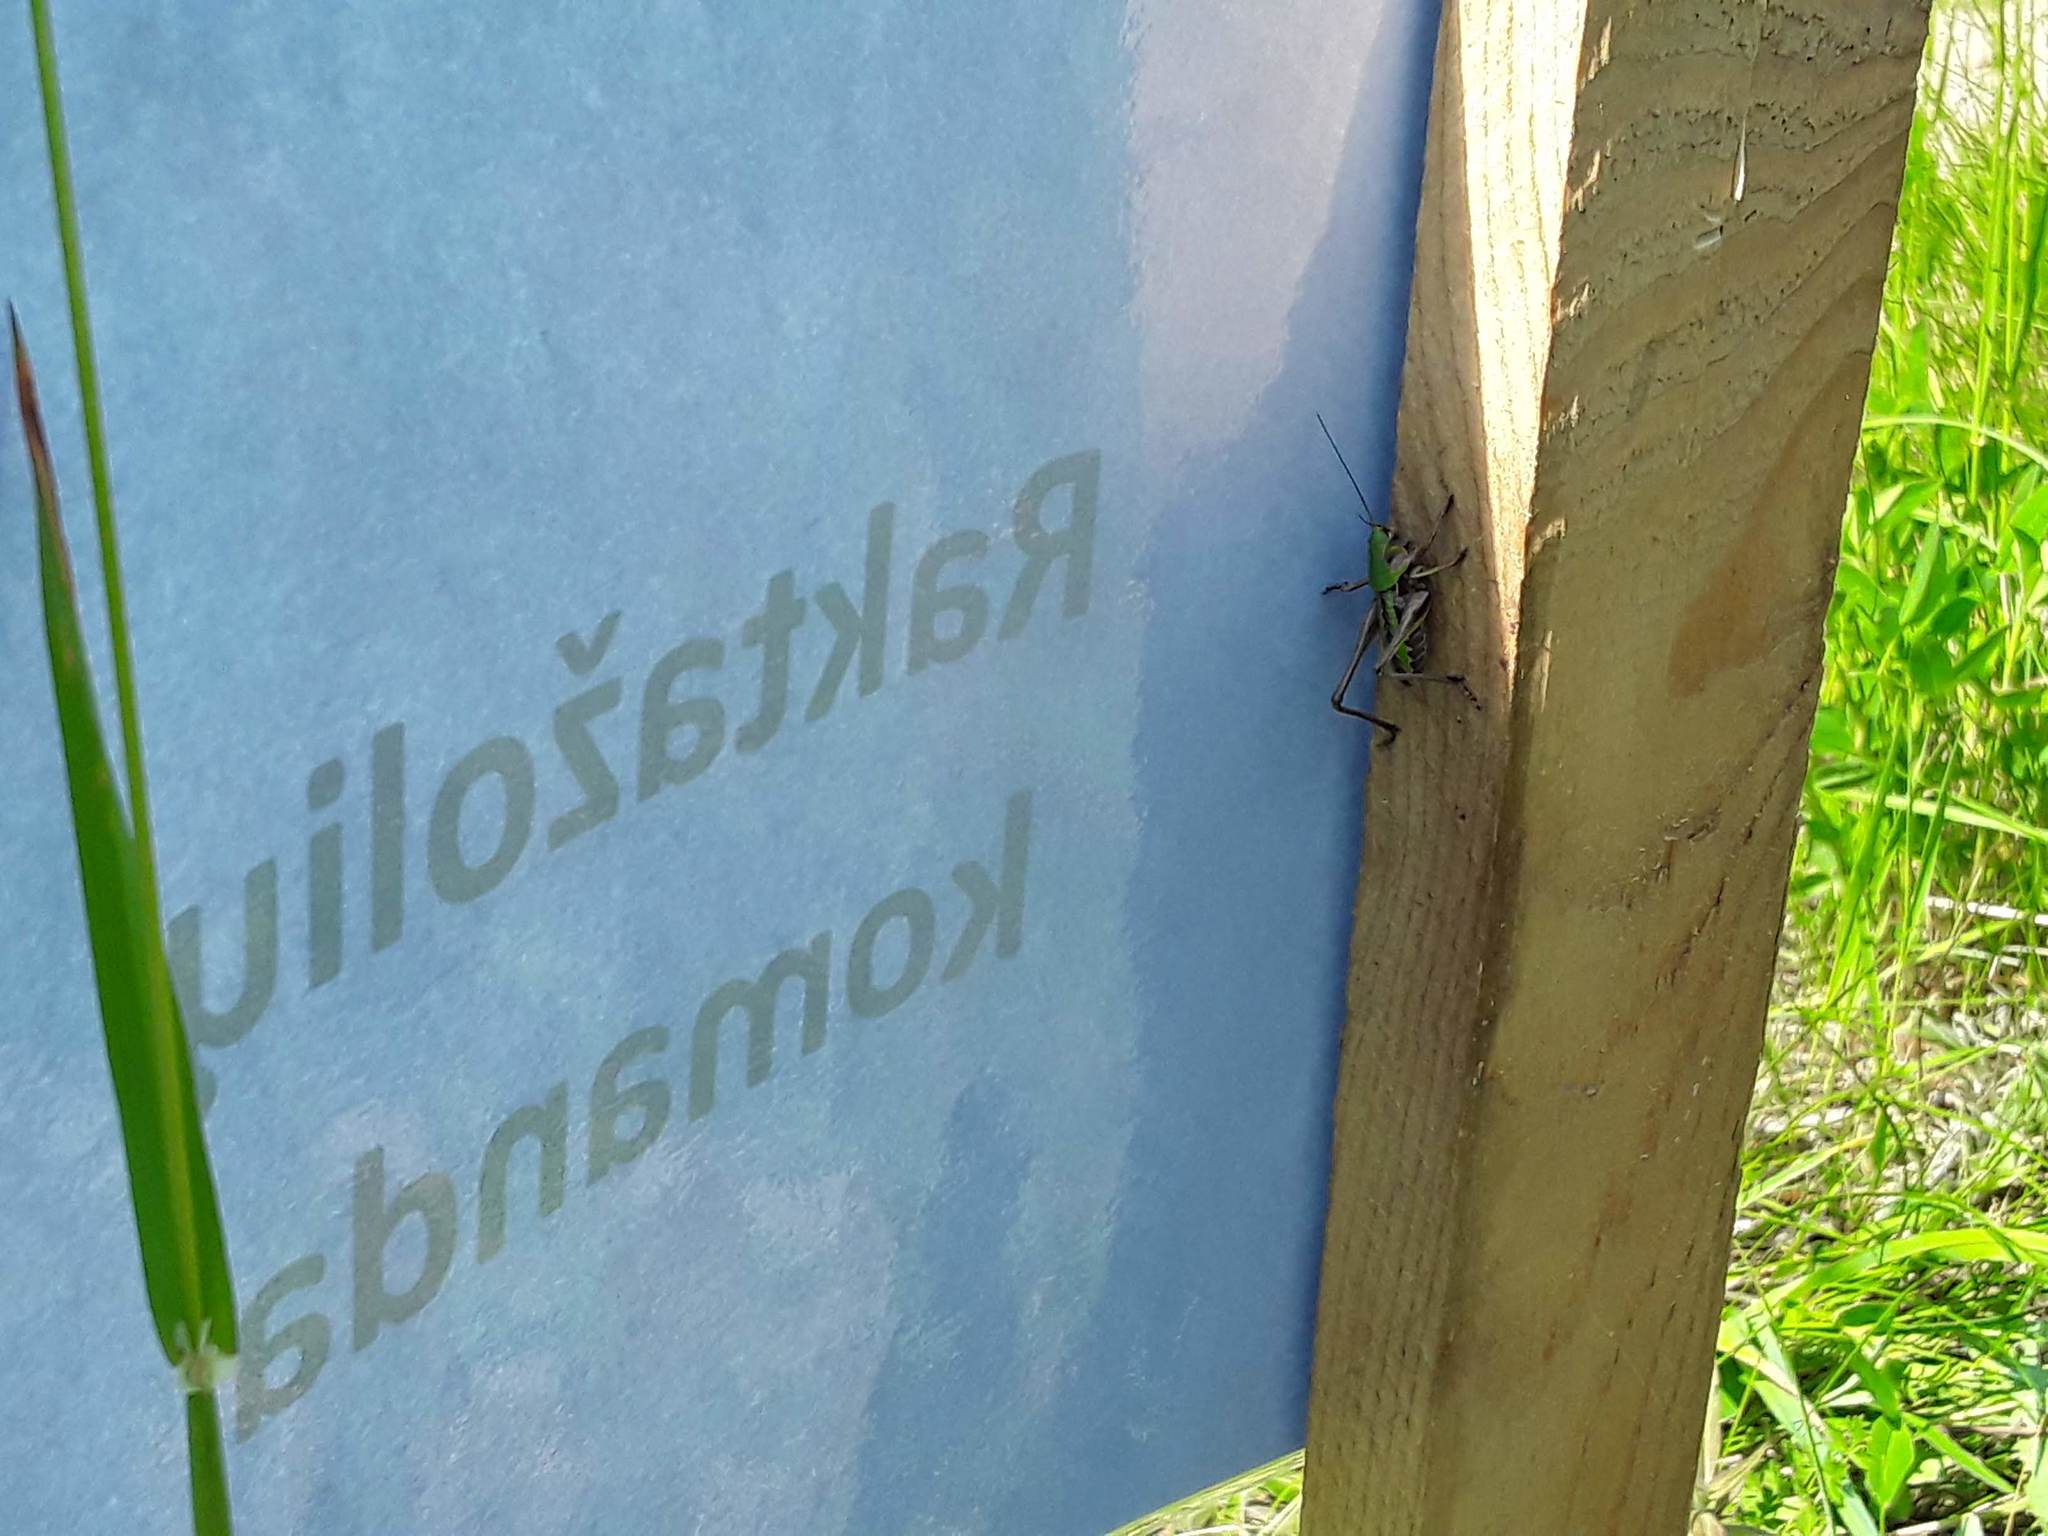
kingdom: Animalia
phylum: Arthropoda
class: Insecta
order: Orthoptera
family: Tettigoniidae
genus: Decticus
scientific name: Decticus verrucivorus
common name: Wart-biter
